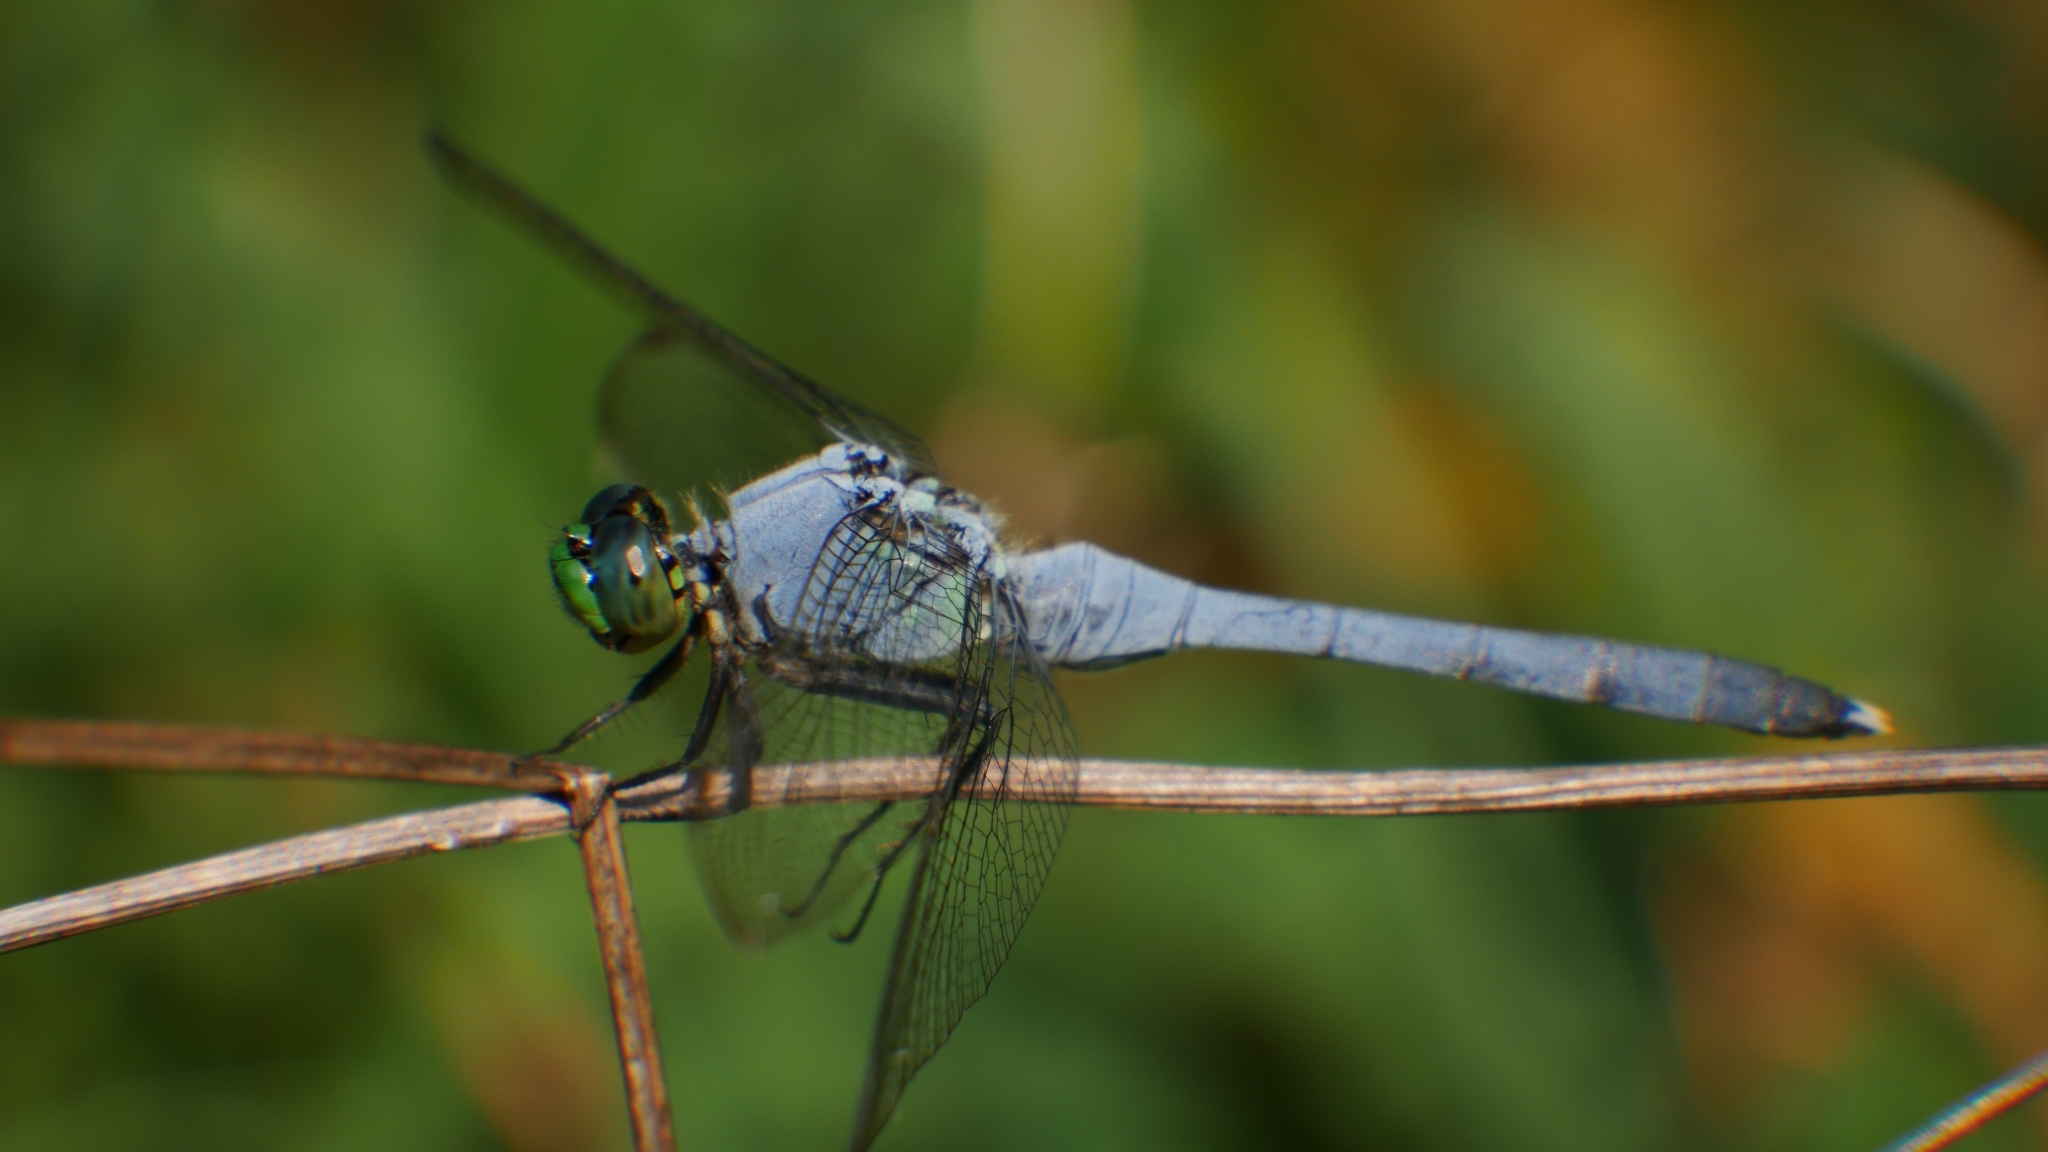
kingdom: Animalia
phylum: Arthropoda
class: Insecta
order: Odonata
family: Libellulidae
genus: Erythemis
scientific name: Erythemis simplicicollis
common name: Eastern pondhawk
